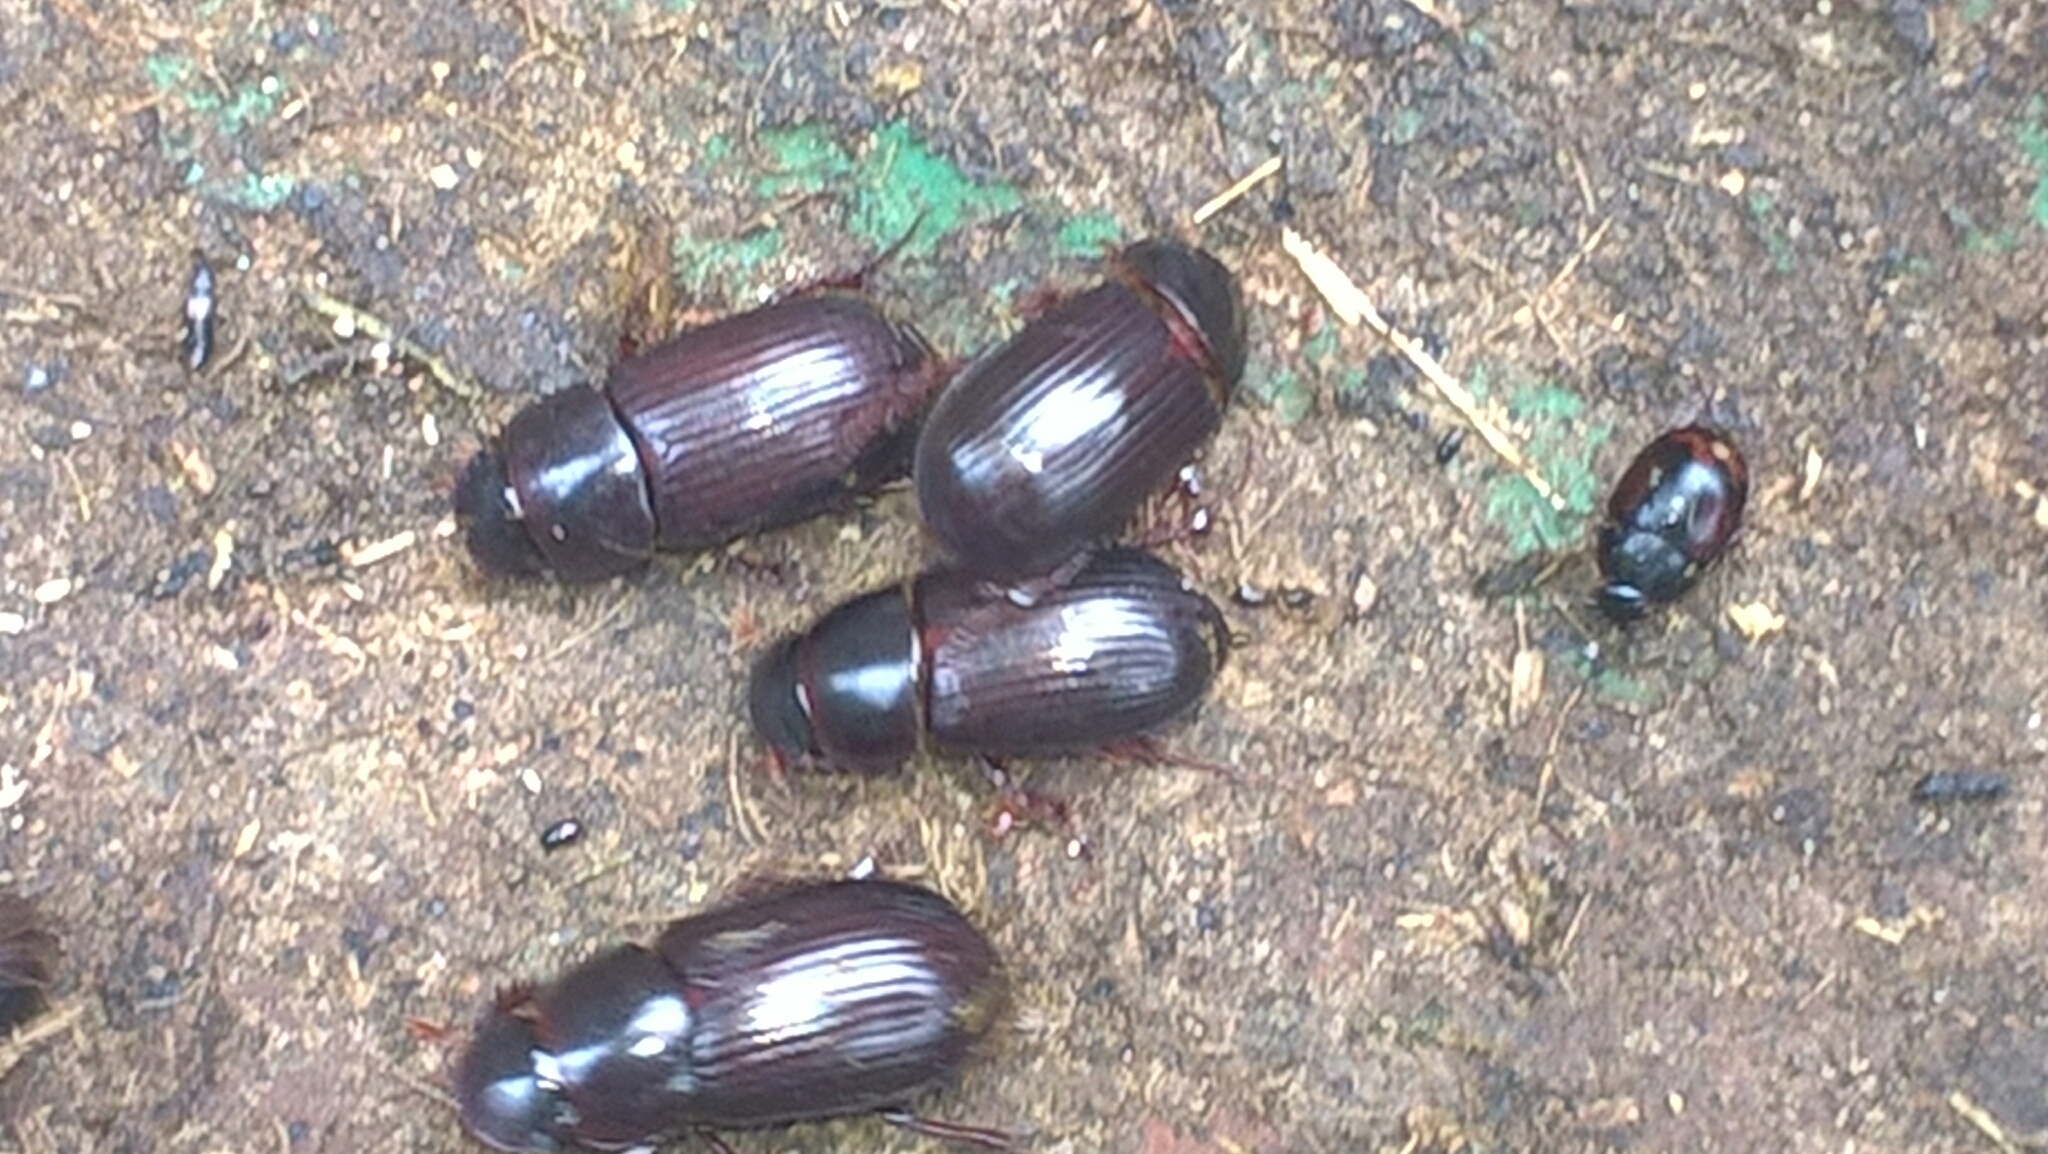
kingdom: Animalia
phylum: Arthropoda
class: Insecta
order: Coleoptera
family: Scarabaeidae
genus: Acrossus
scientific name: Acrossus rufipes
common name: Night-flying dung beetle
